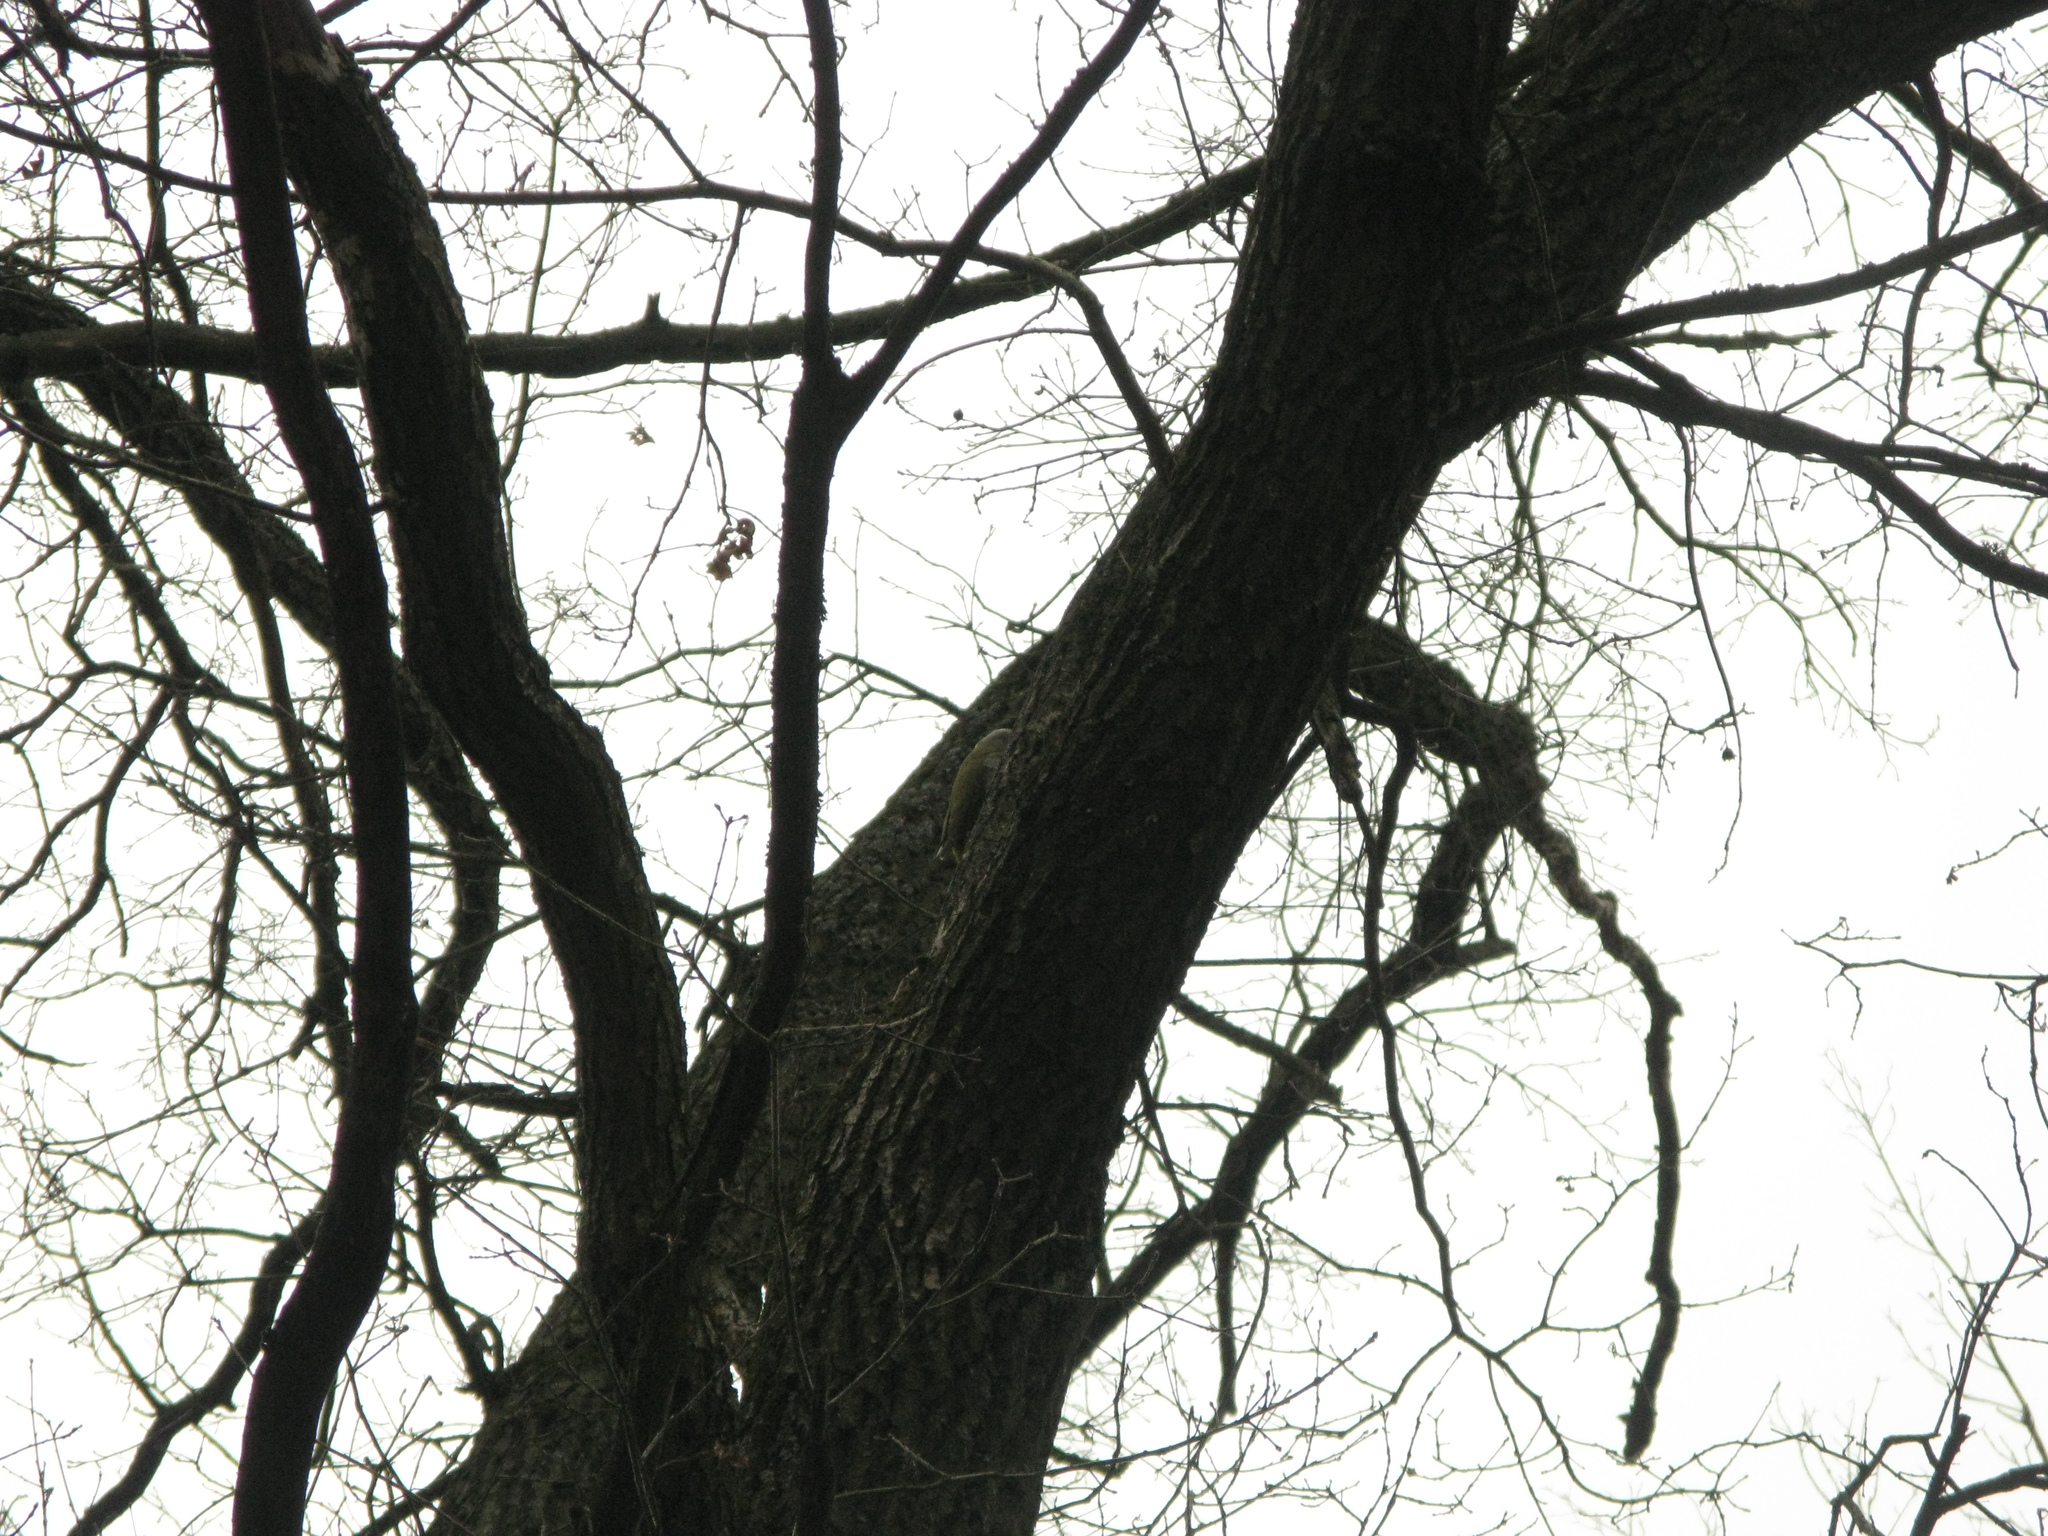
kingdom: Animalia
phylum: Chordata
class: Aves
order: Piciformes
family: Picidae
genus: Picus
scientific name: Picus canus
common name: Grey-headed woodpecker
